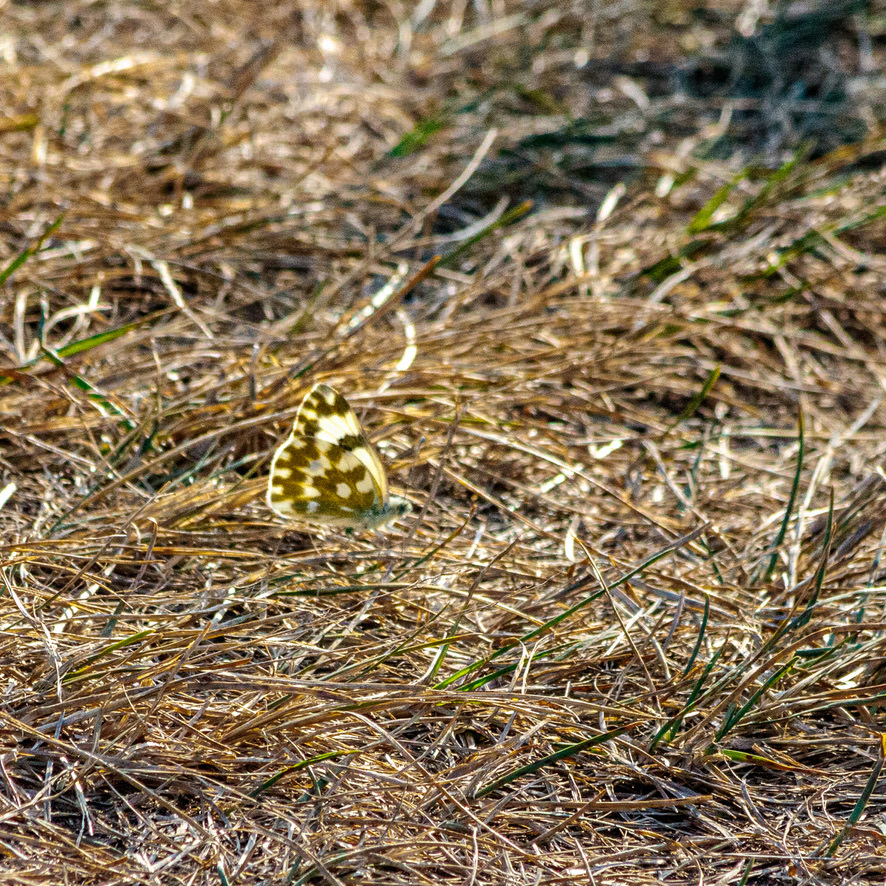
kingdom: Animalia
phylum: Arthropoda
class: Insecta
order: Lepidoptera
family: Pieridae
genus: Pontia
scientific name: Pontia edusa
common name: Eastern bath white
